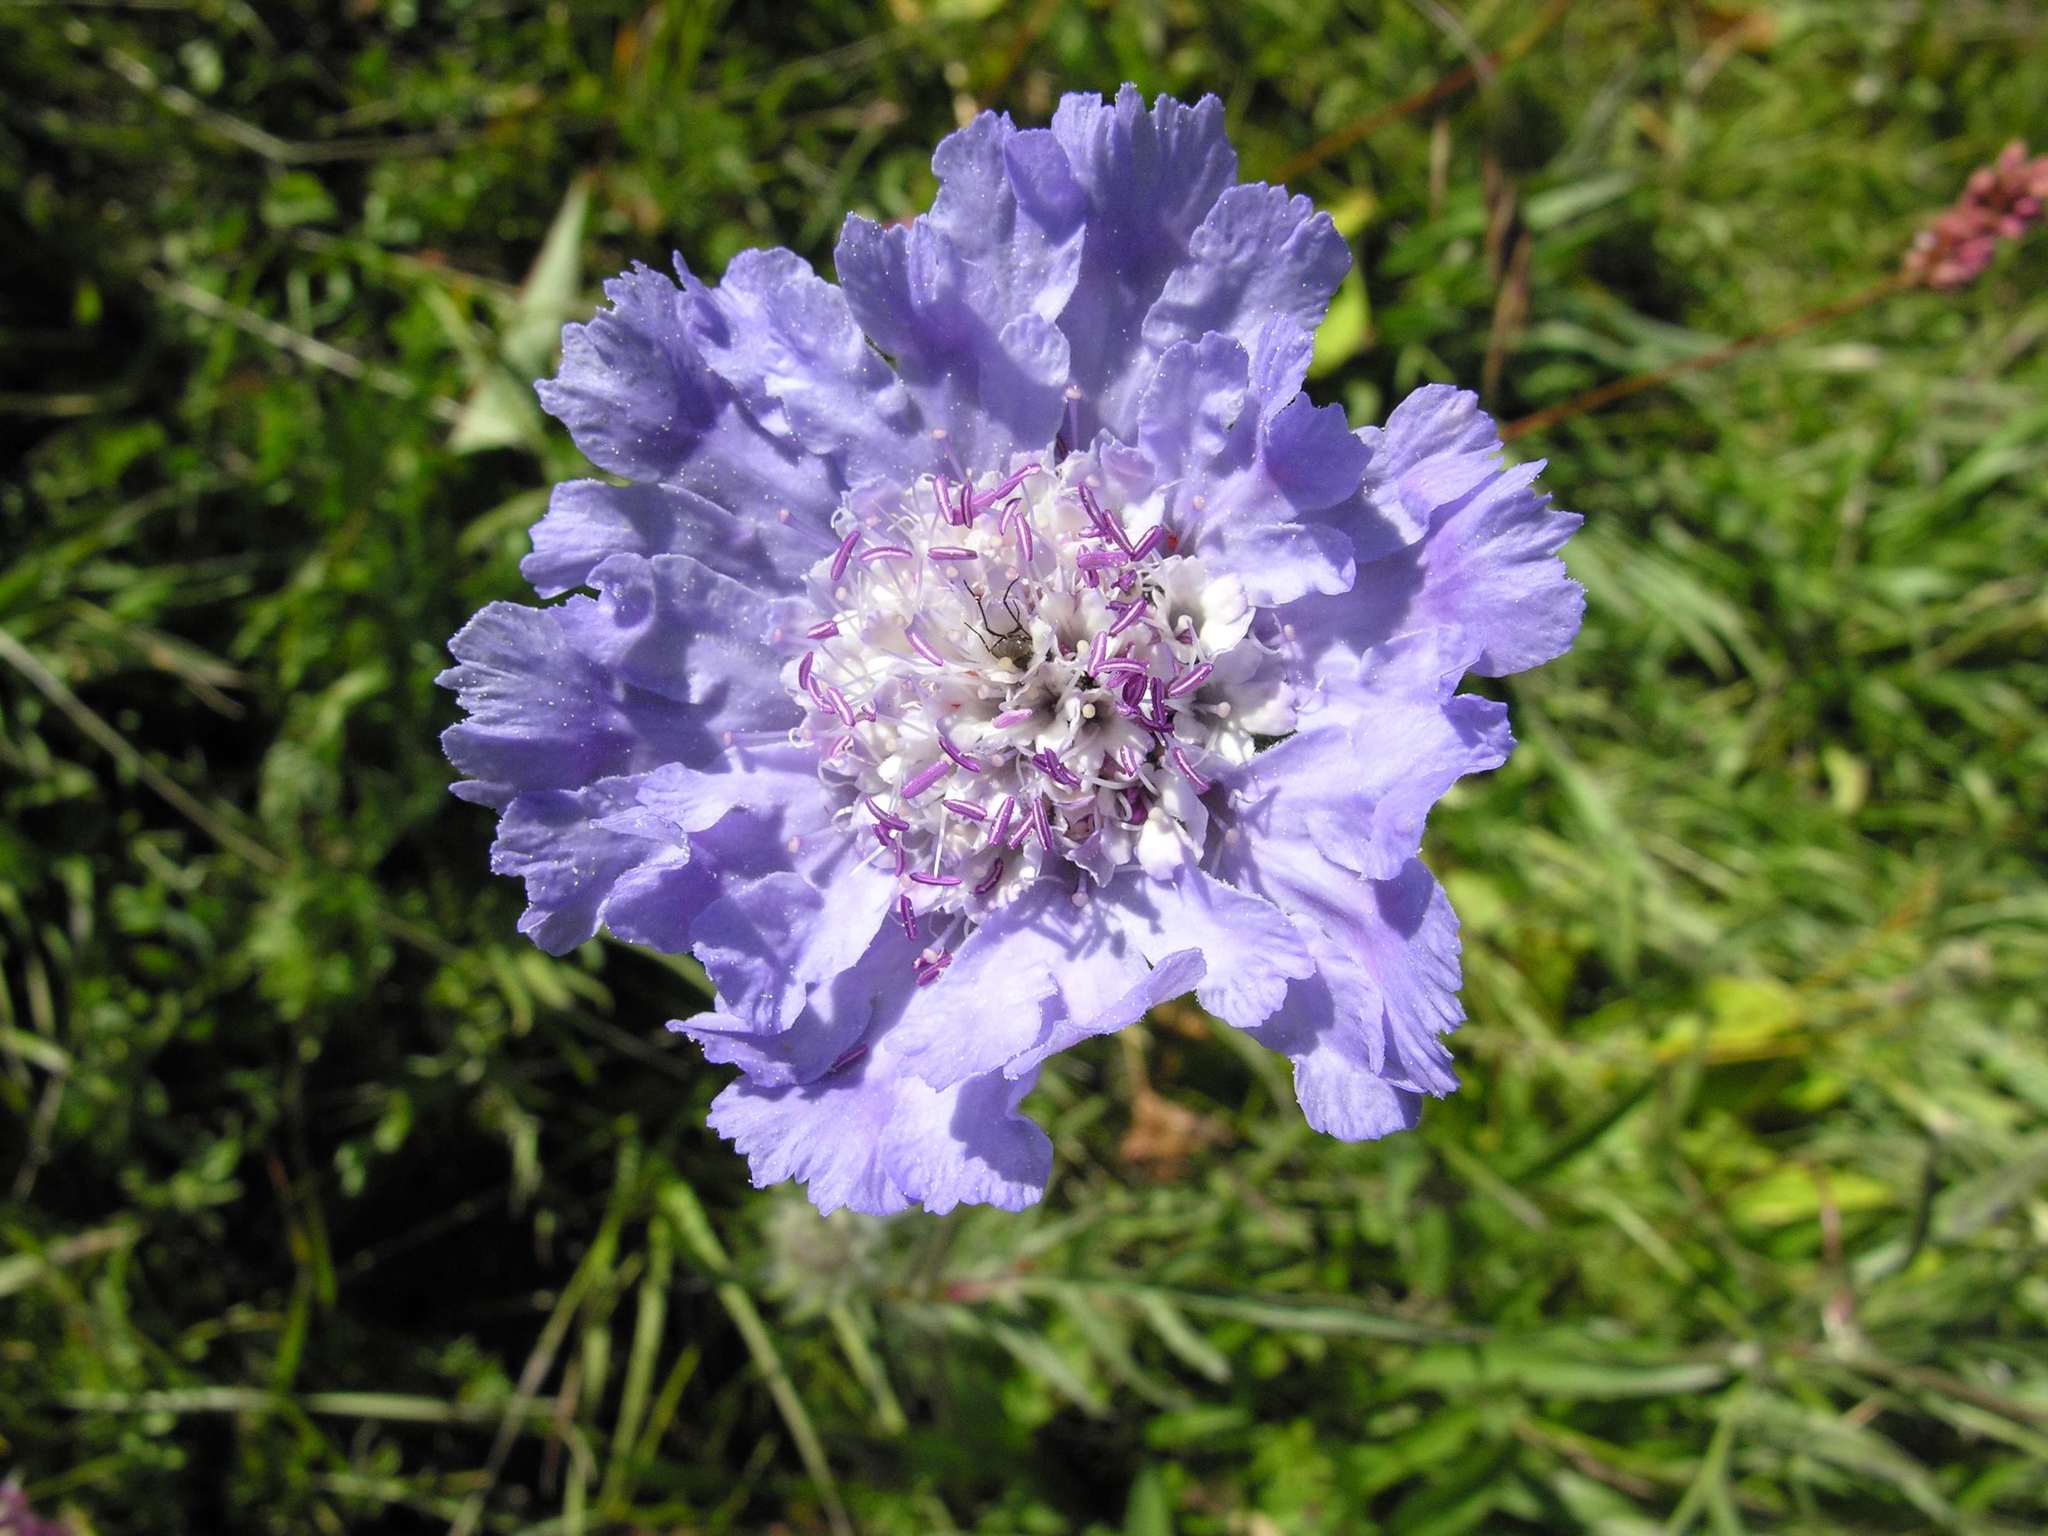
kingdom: Plantae
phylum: Tracheophyta
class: Magnoliopsida
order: Dipsacales
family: Caprifoliaceae
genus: Lomelosia
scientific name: Lomelosia caucasica
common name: Pincushion-flower
